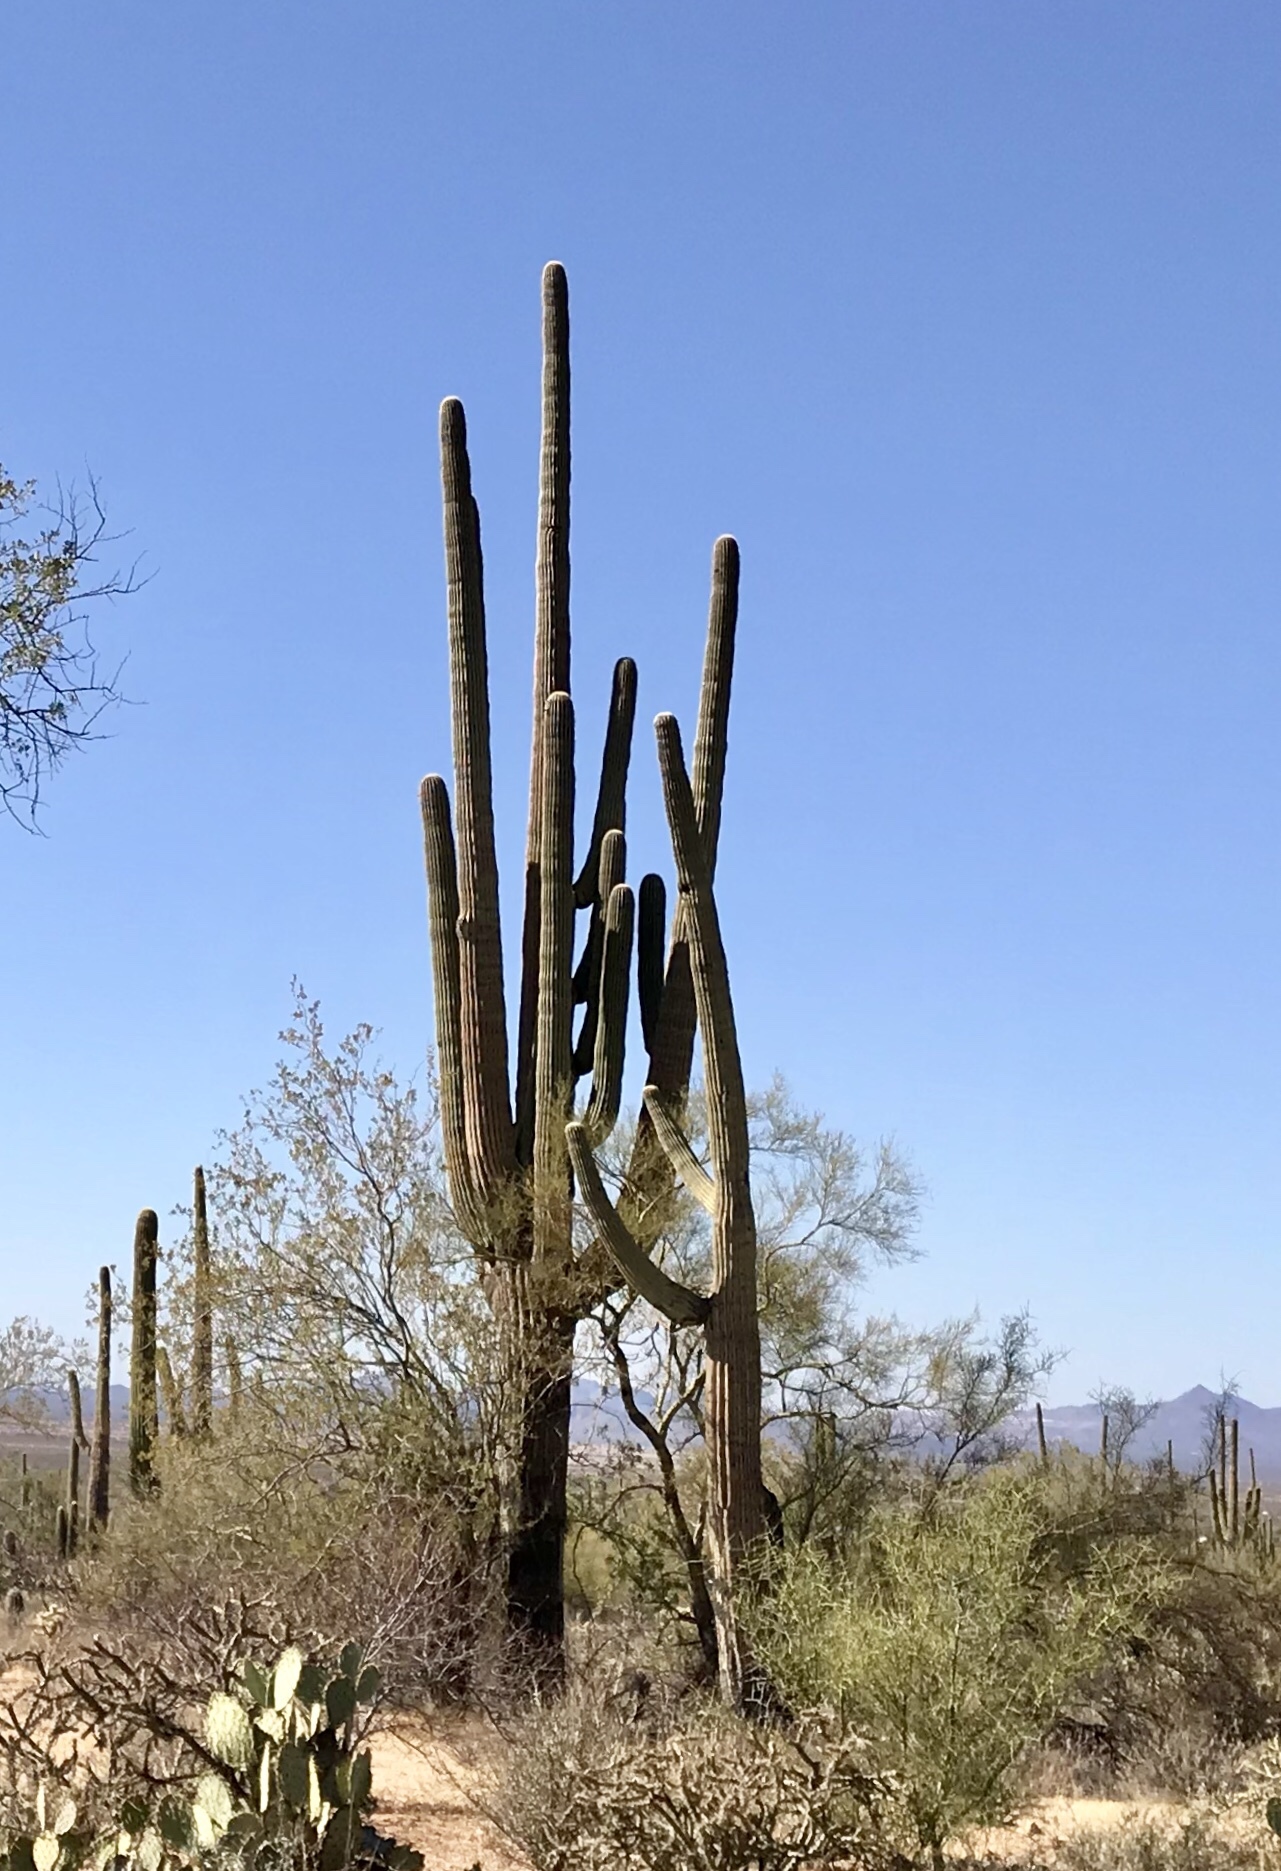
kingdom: Plantae
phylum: Tracheophyta
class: Magnoliopsida
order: Caryophyllales
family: Cactaceae
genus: Carnegiea
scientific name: Carnegiea gigantea
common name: Saguaro
